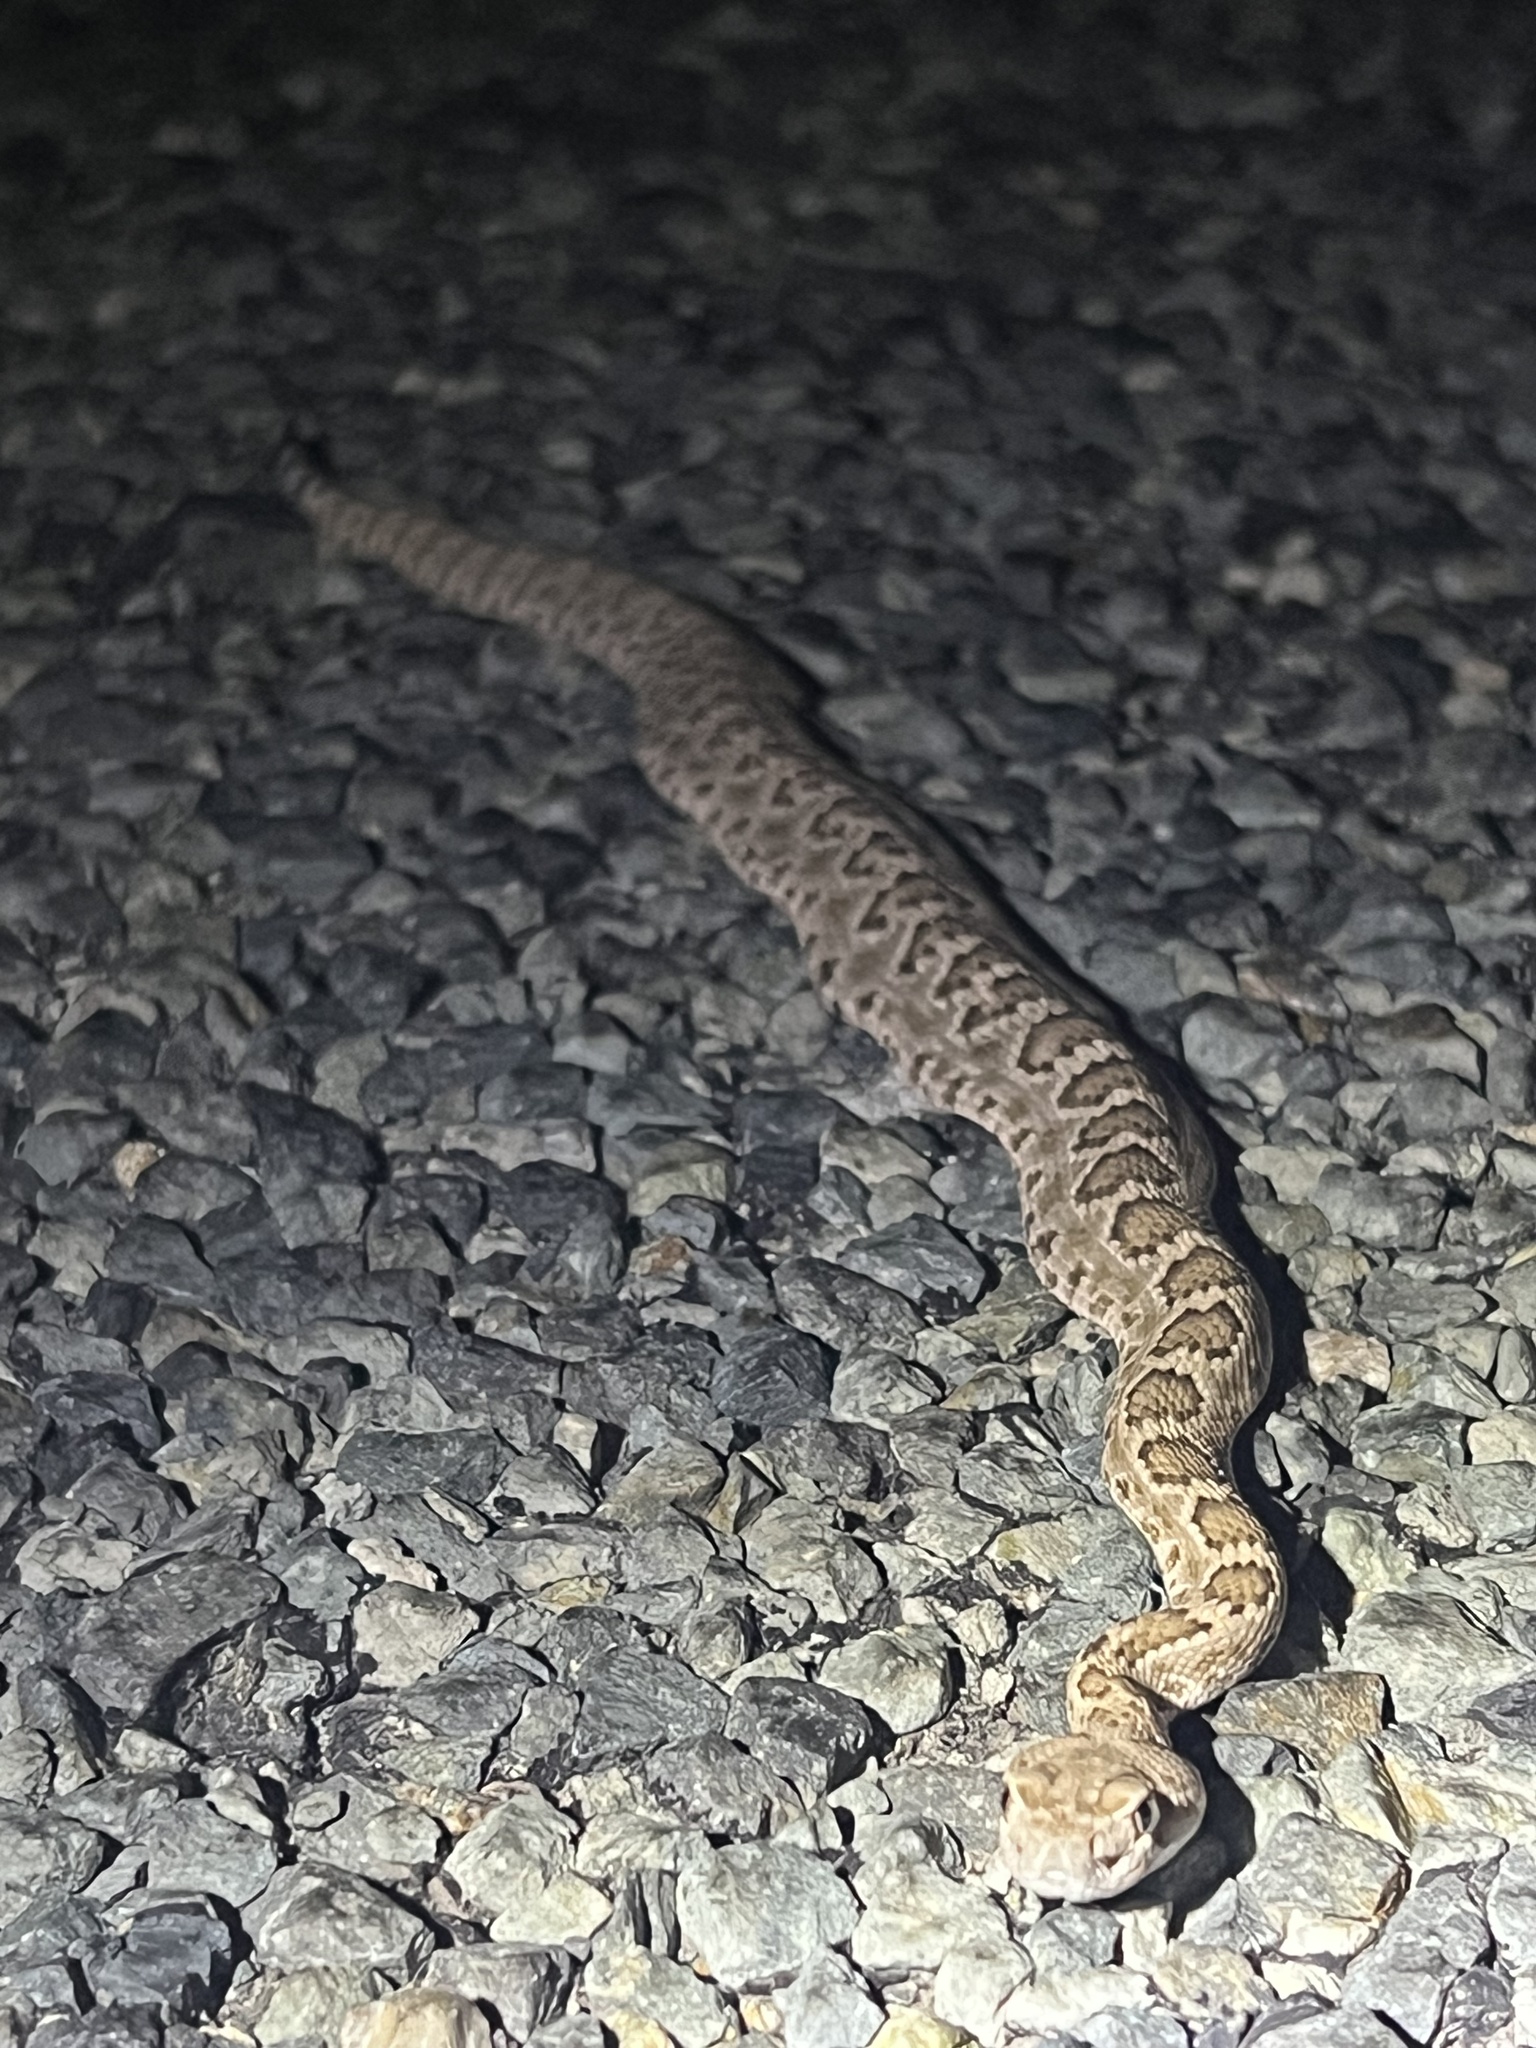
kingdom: Animalia
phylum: Chordata
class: Squamata
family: Viperidae
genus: Crotalus
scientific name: Crotalus scutulatus
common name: Scutulatus
